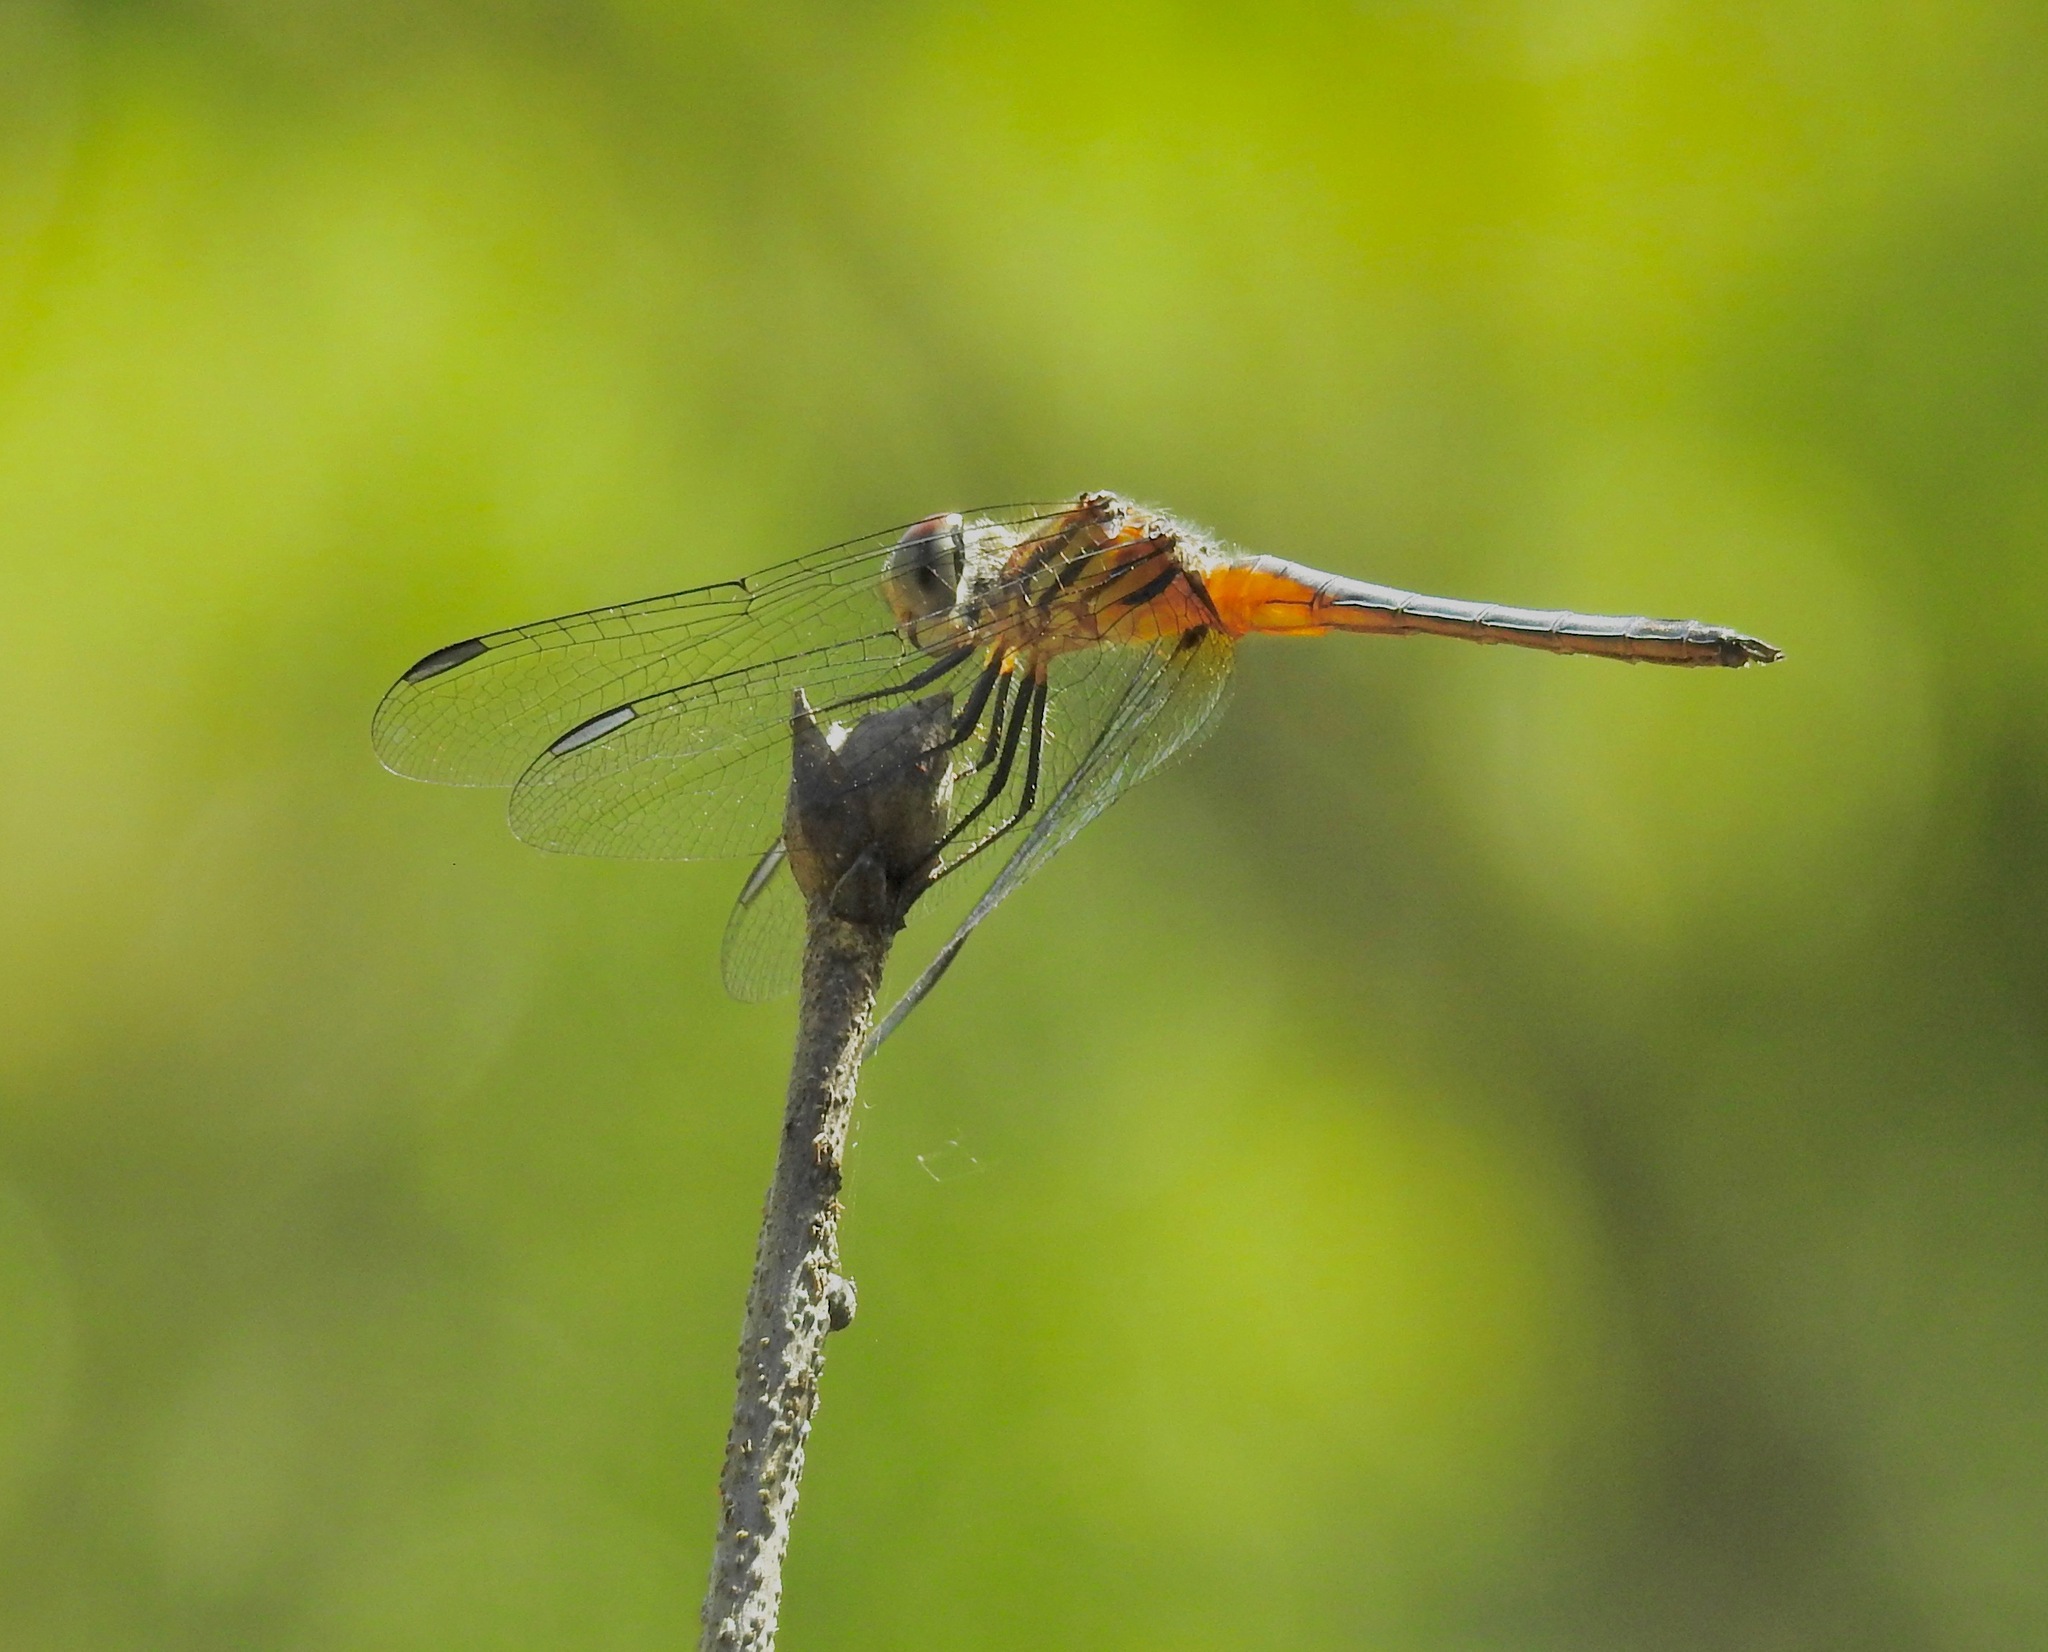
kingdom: Animalia
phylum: Arthropoda
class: Insecta
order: Odonata
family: Libellulidae
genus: Pachydiplax
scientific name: Pachydiplax longipennis
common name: Blue dasher
